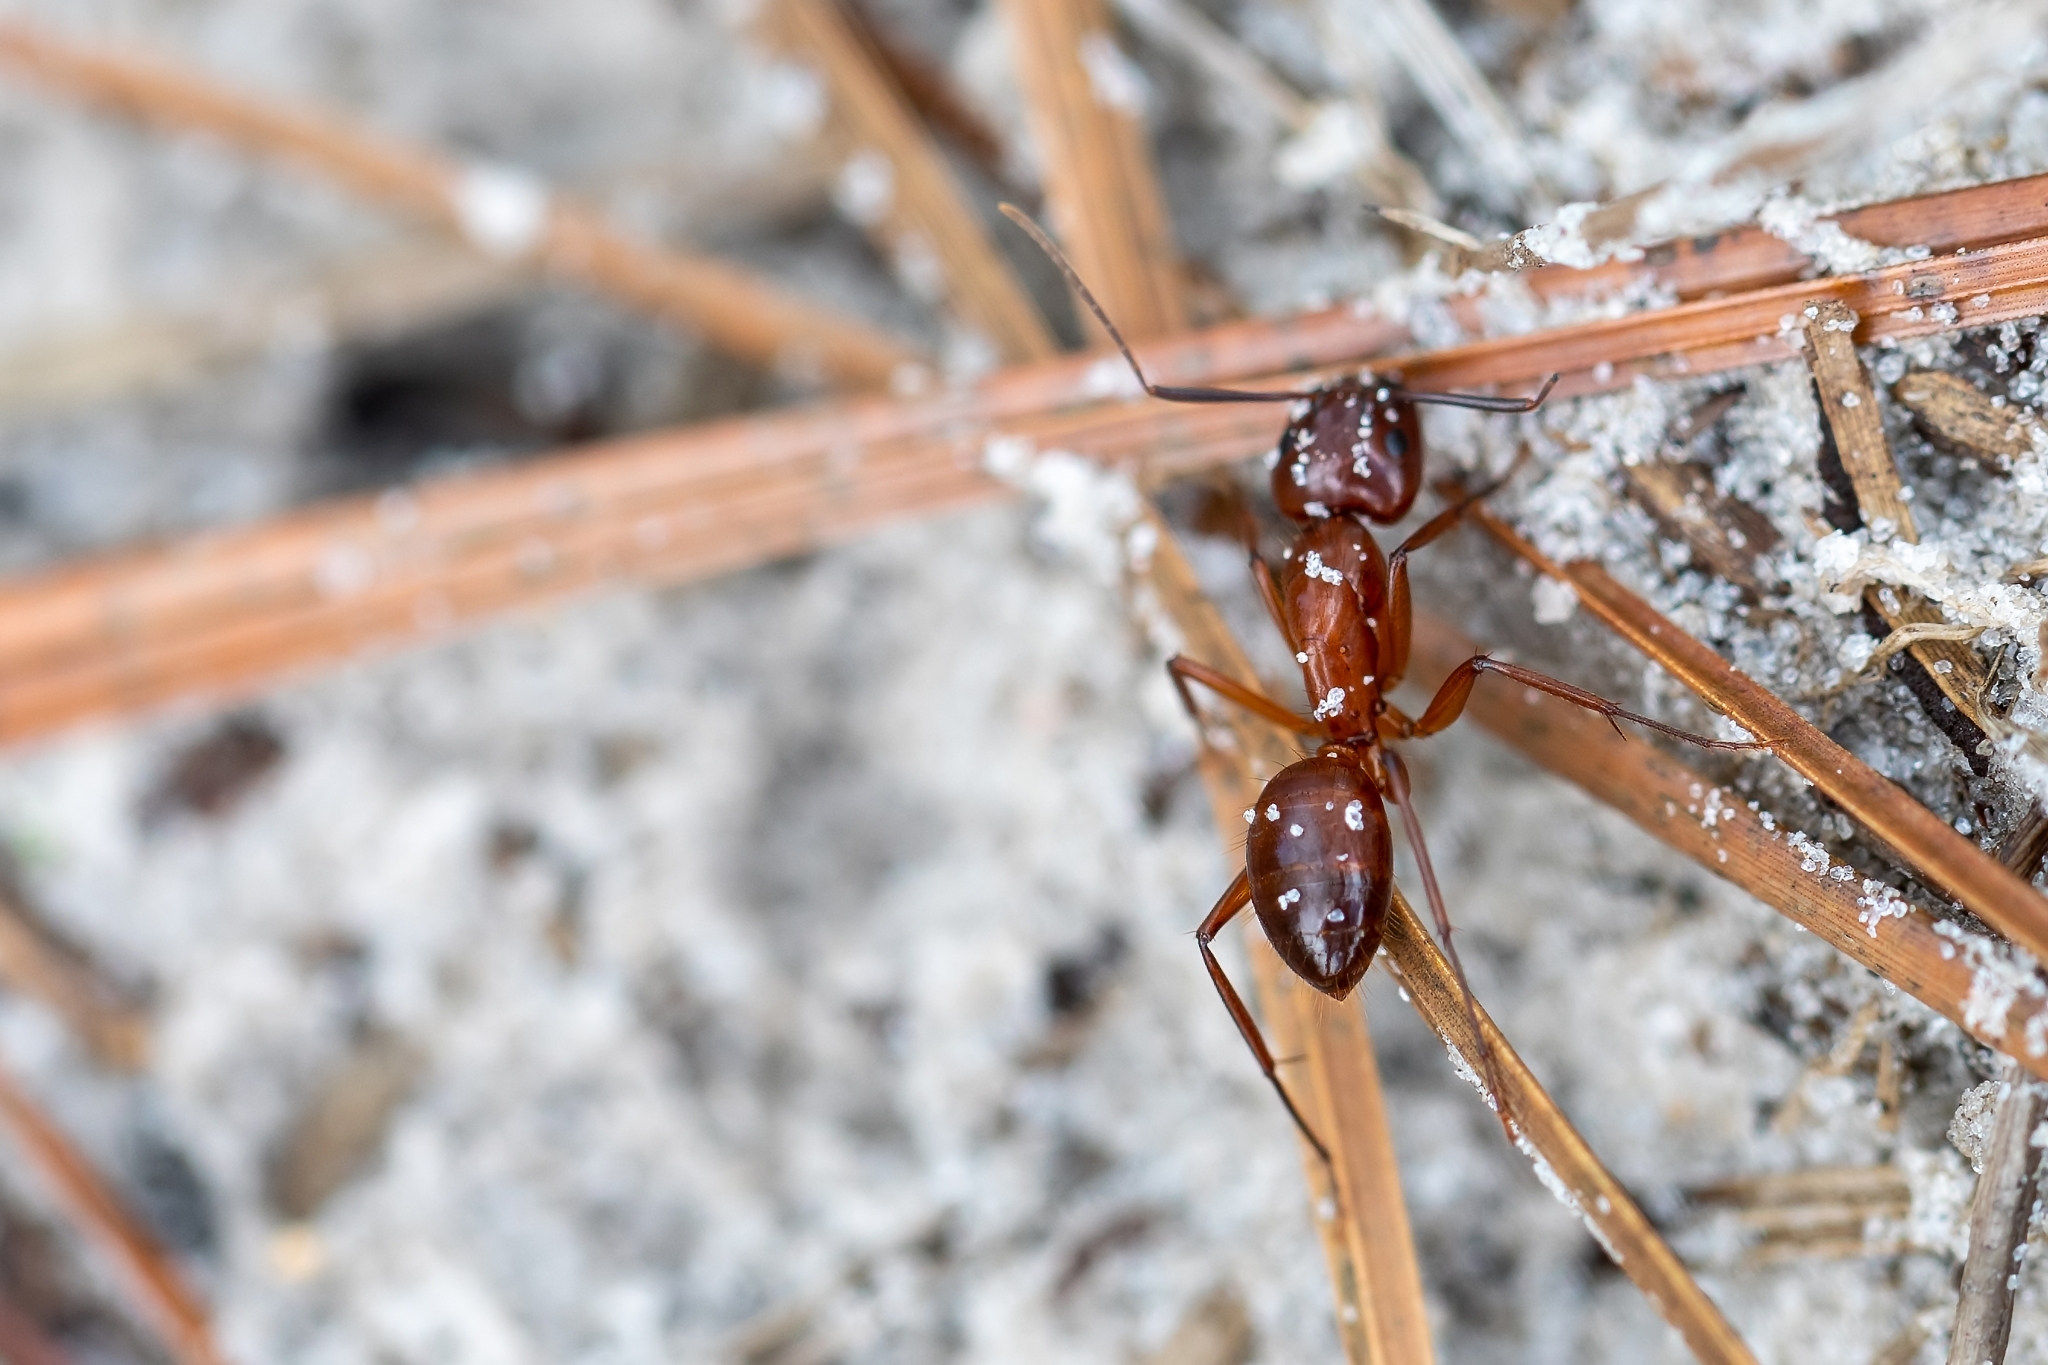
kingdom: Animalia
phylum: Arthropoda
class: Insecta
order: Hymenoptera
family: Formicidae
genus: Camponotus
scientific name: Camponotus castaneus
